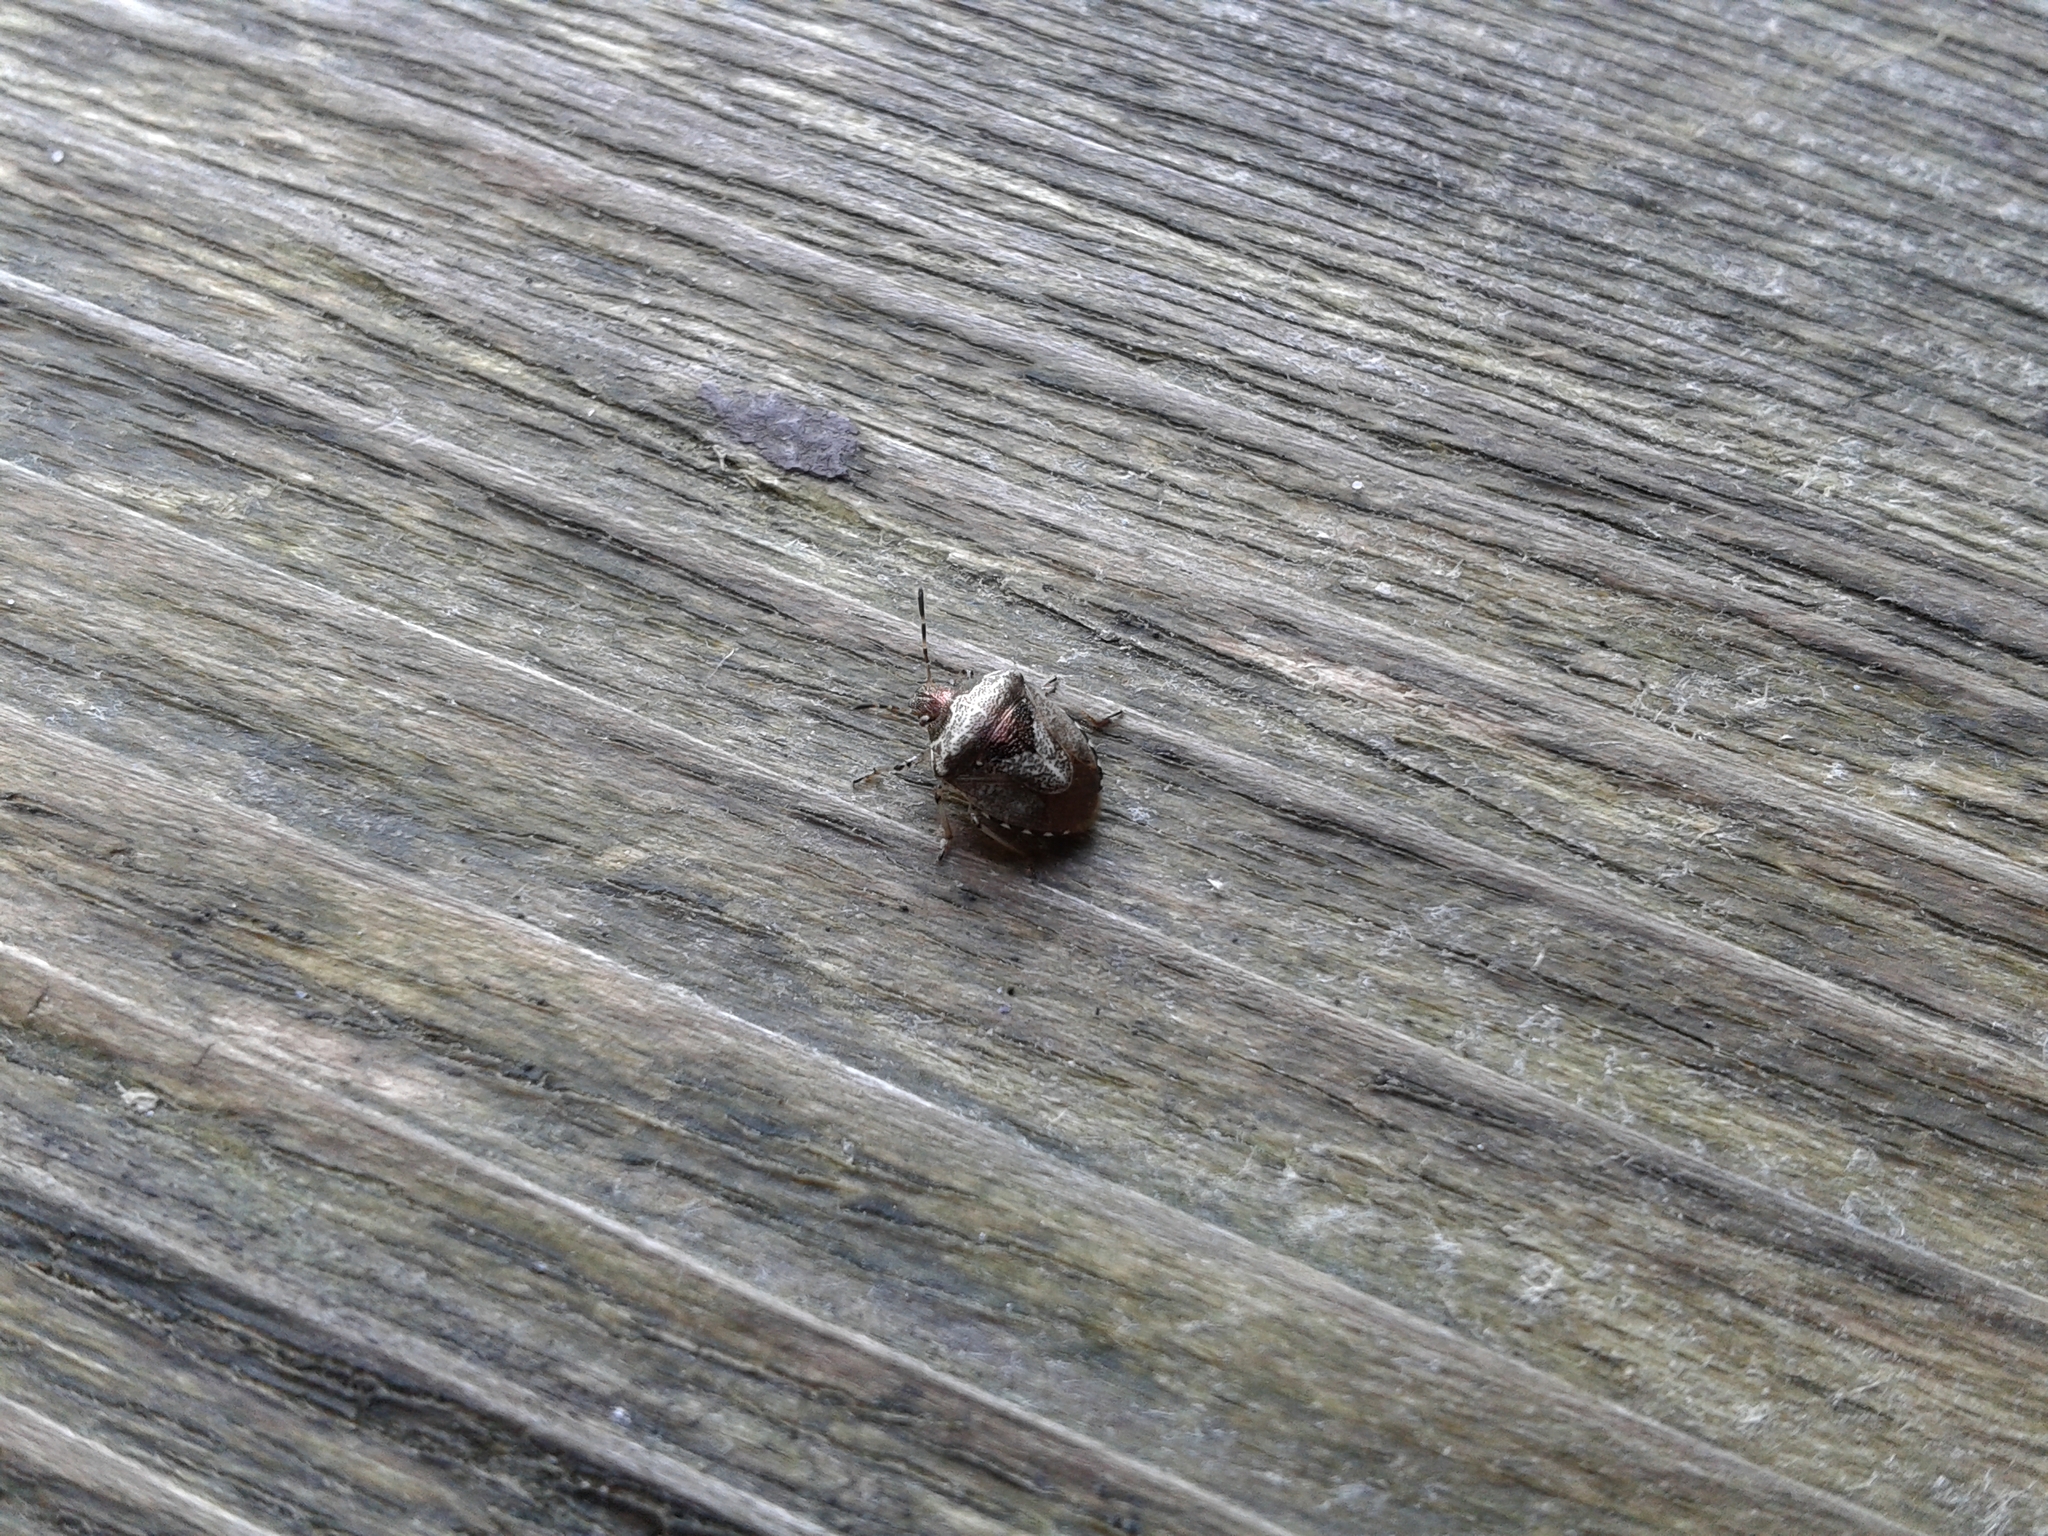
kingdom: Animalia
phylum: Arthropoda
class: Insecta
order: Hemiptera
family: Pentatomidae
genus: Eysarcoris
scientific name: Eysarcoris venustissimus
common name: Woundwort shieldbug
